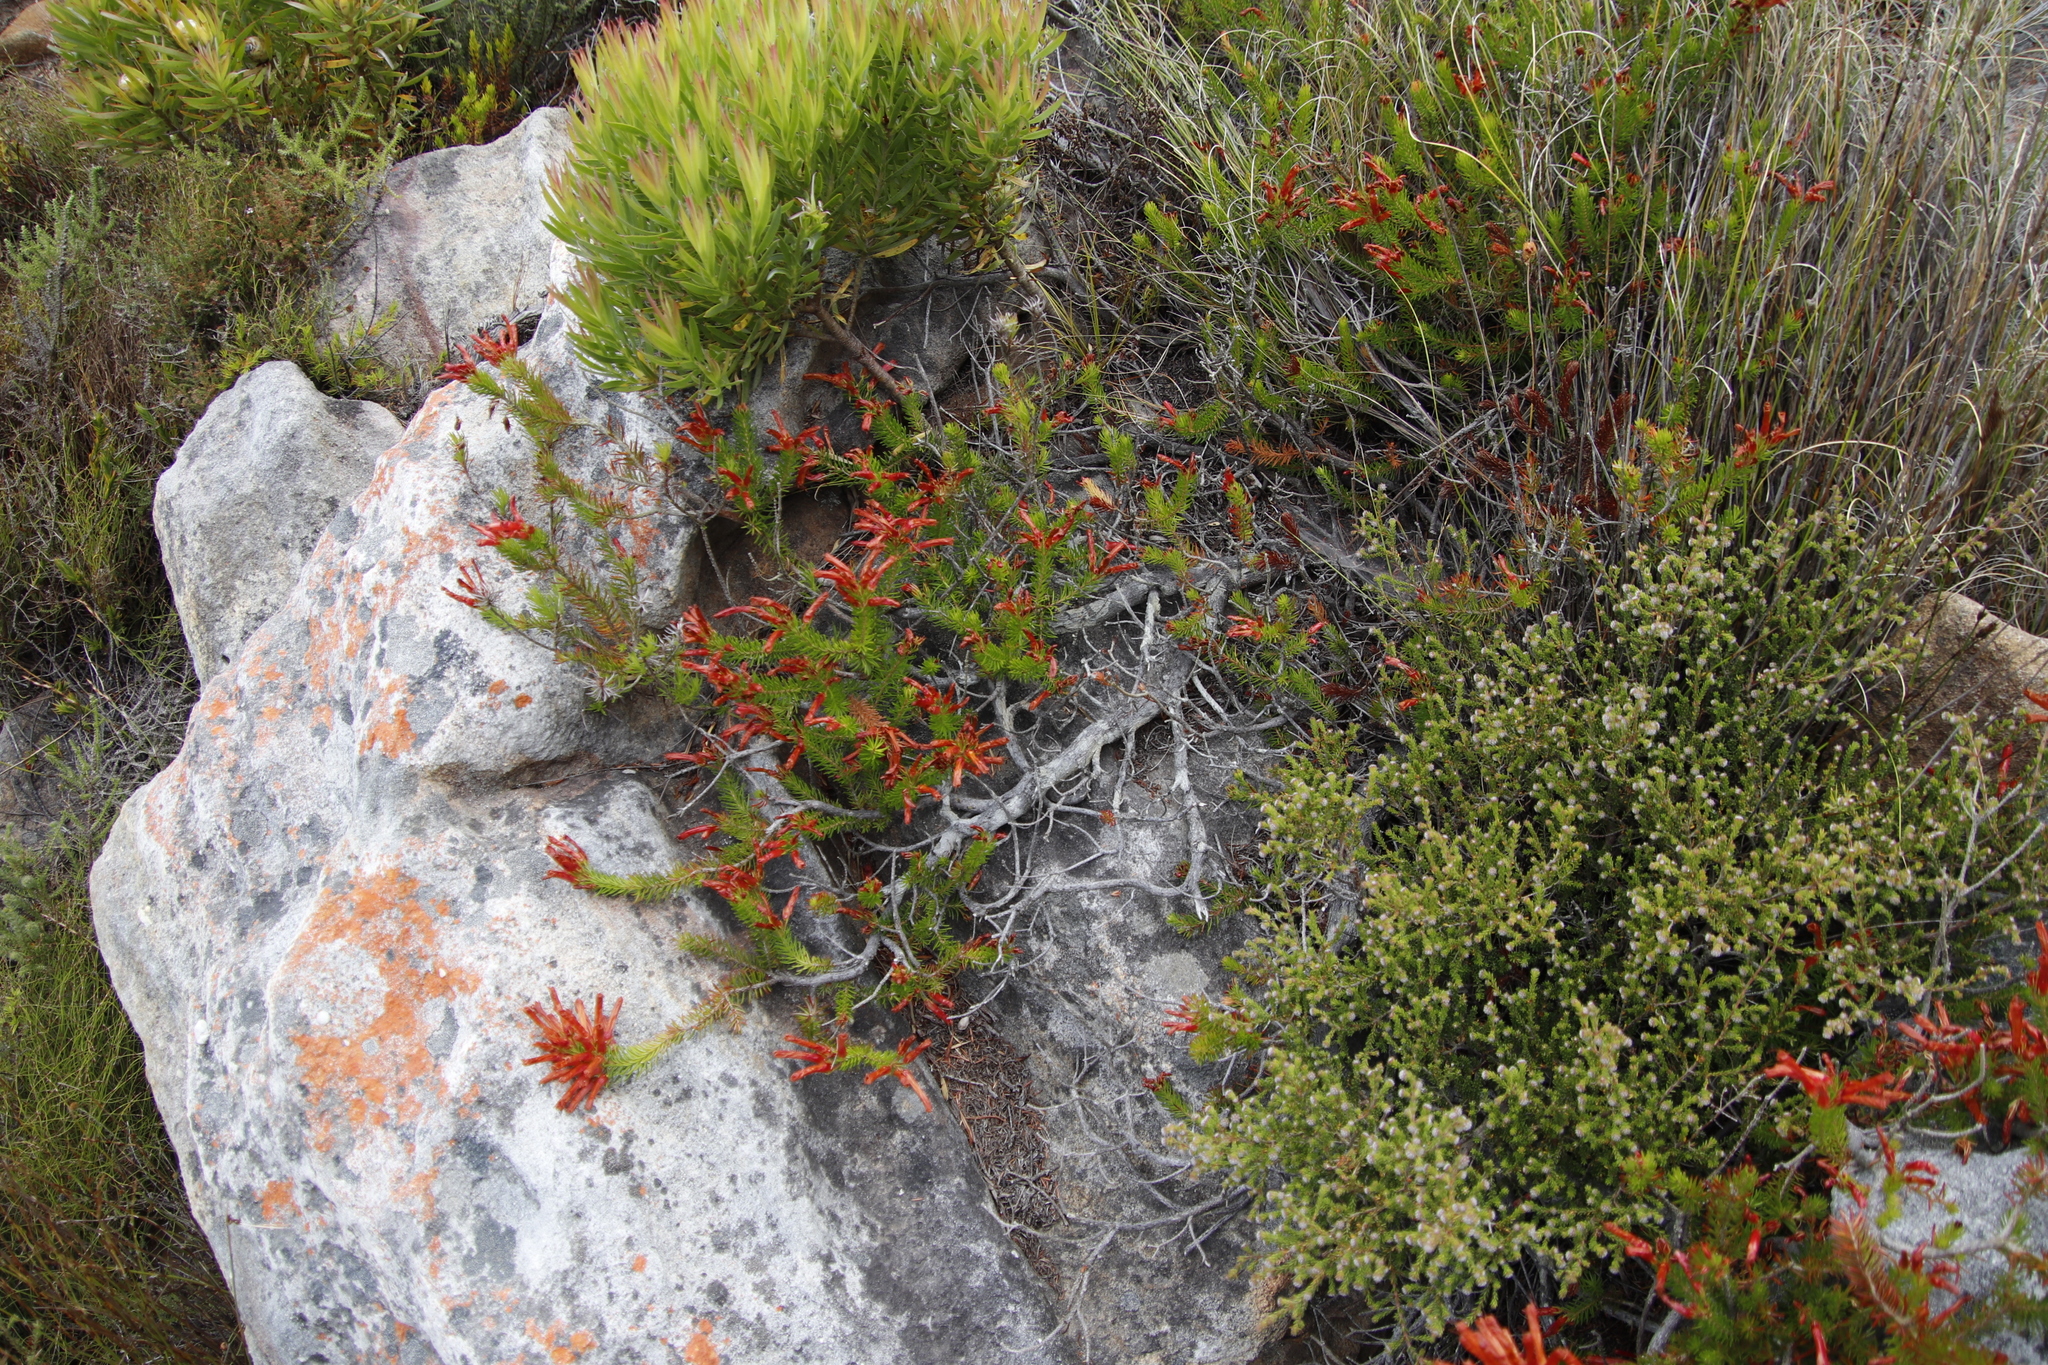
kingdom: Plantae
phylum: Tracheophyta
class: Magnoliopsida
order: Ericales
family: Ericaceae
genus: Erica
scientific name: Erica nevillei
